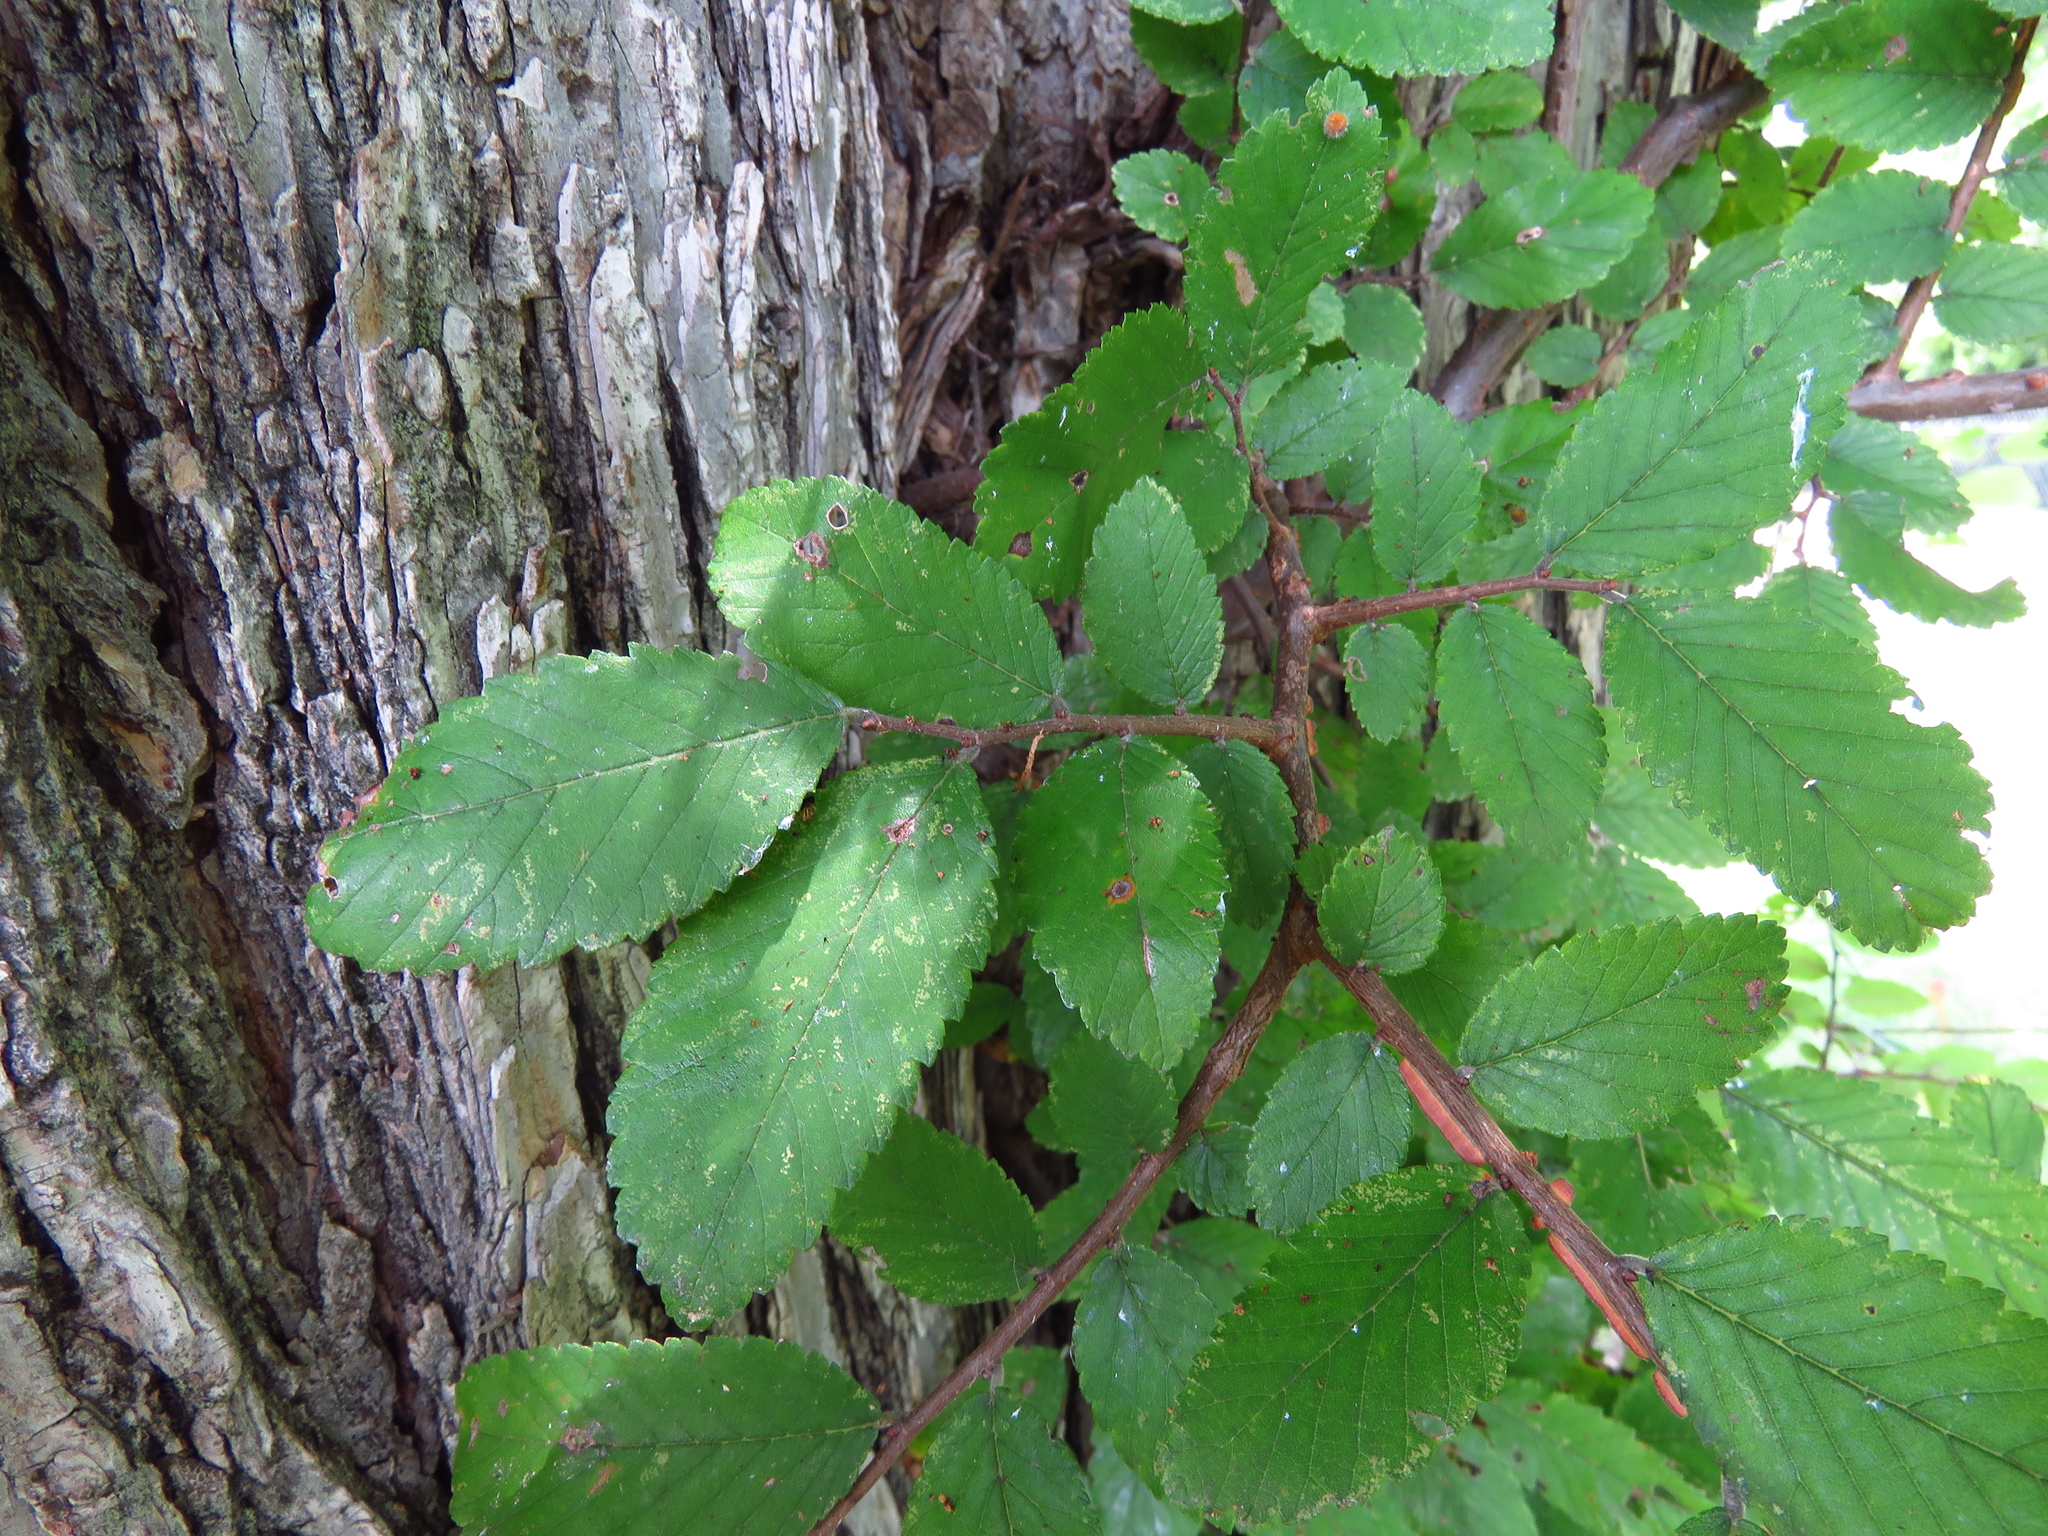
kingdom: Plantae
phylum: Tracheophyta
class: Magnoliopsida
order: Rosales
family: Ulmaceae
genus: Ulmus
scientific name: Ulmus crassifolia
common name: Basket elm
